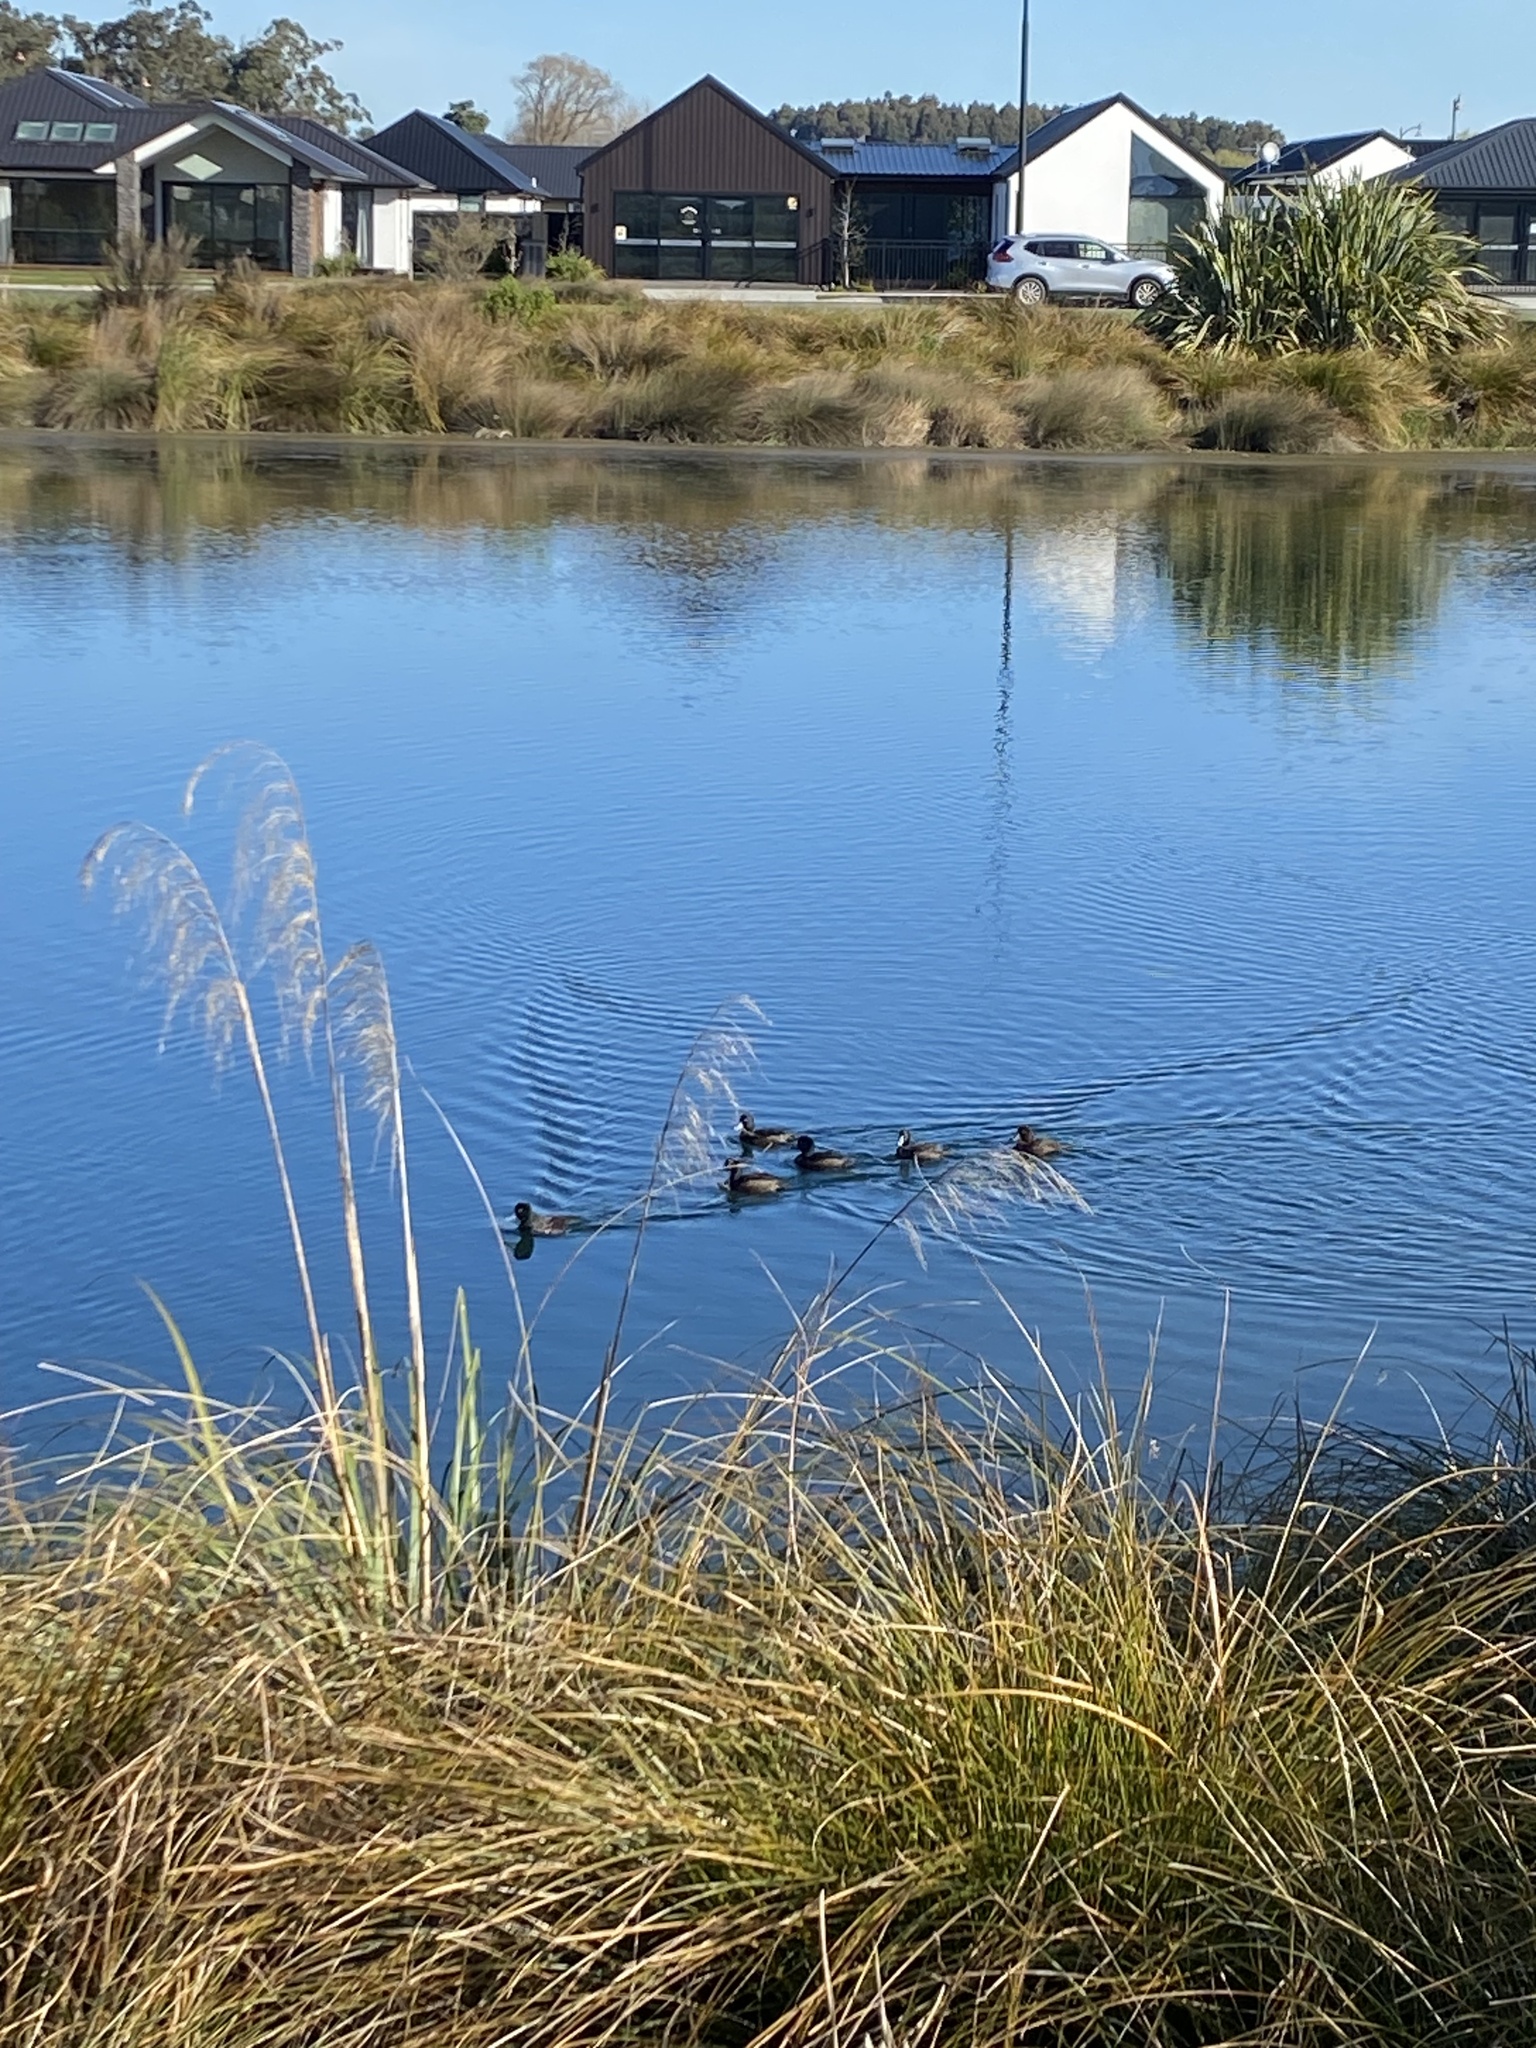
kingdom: Animalia
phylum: Chordata
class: Aves
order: Anseriformes
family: Anatidae
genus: Aythya
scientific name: Aythya novaeseelandiae
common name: New zealand scaup
